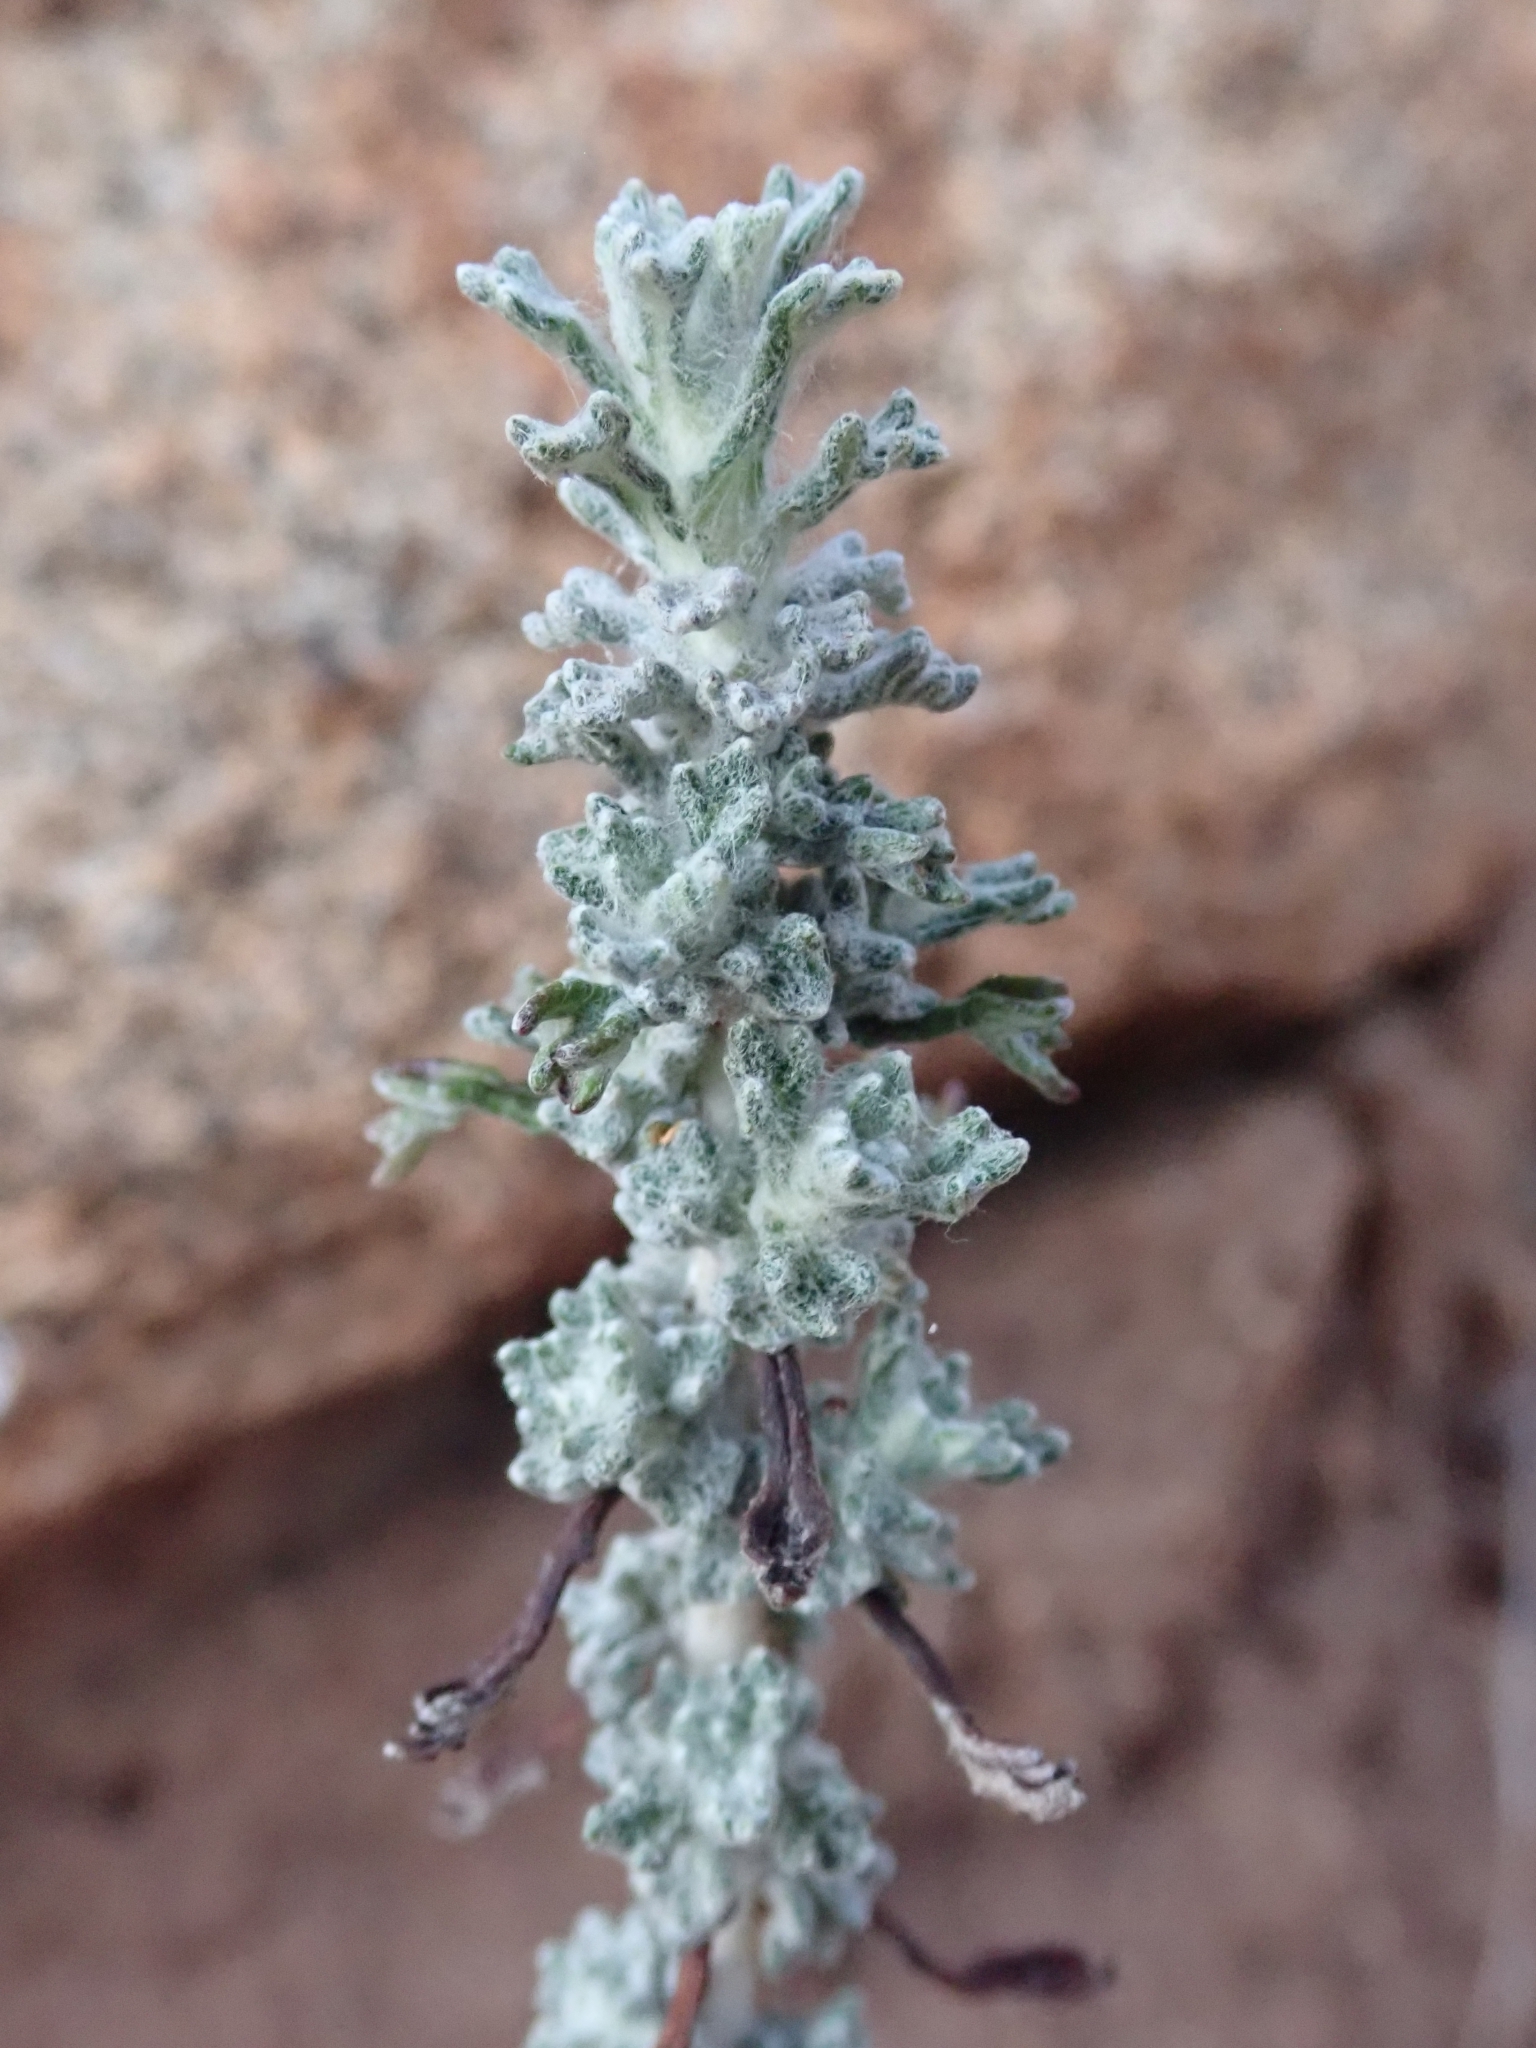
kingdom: Plantae
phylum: Tracheophyta
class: Magnoliopsida
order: Asterales
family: Asteraceae
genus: Eriophyllum
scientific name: Eriophyllum confertiflorum
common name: Golden-yarrow
